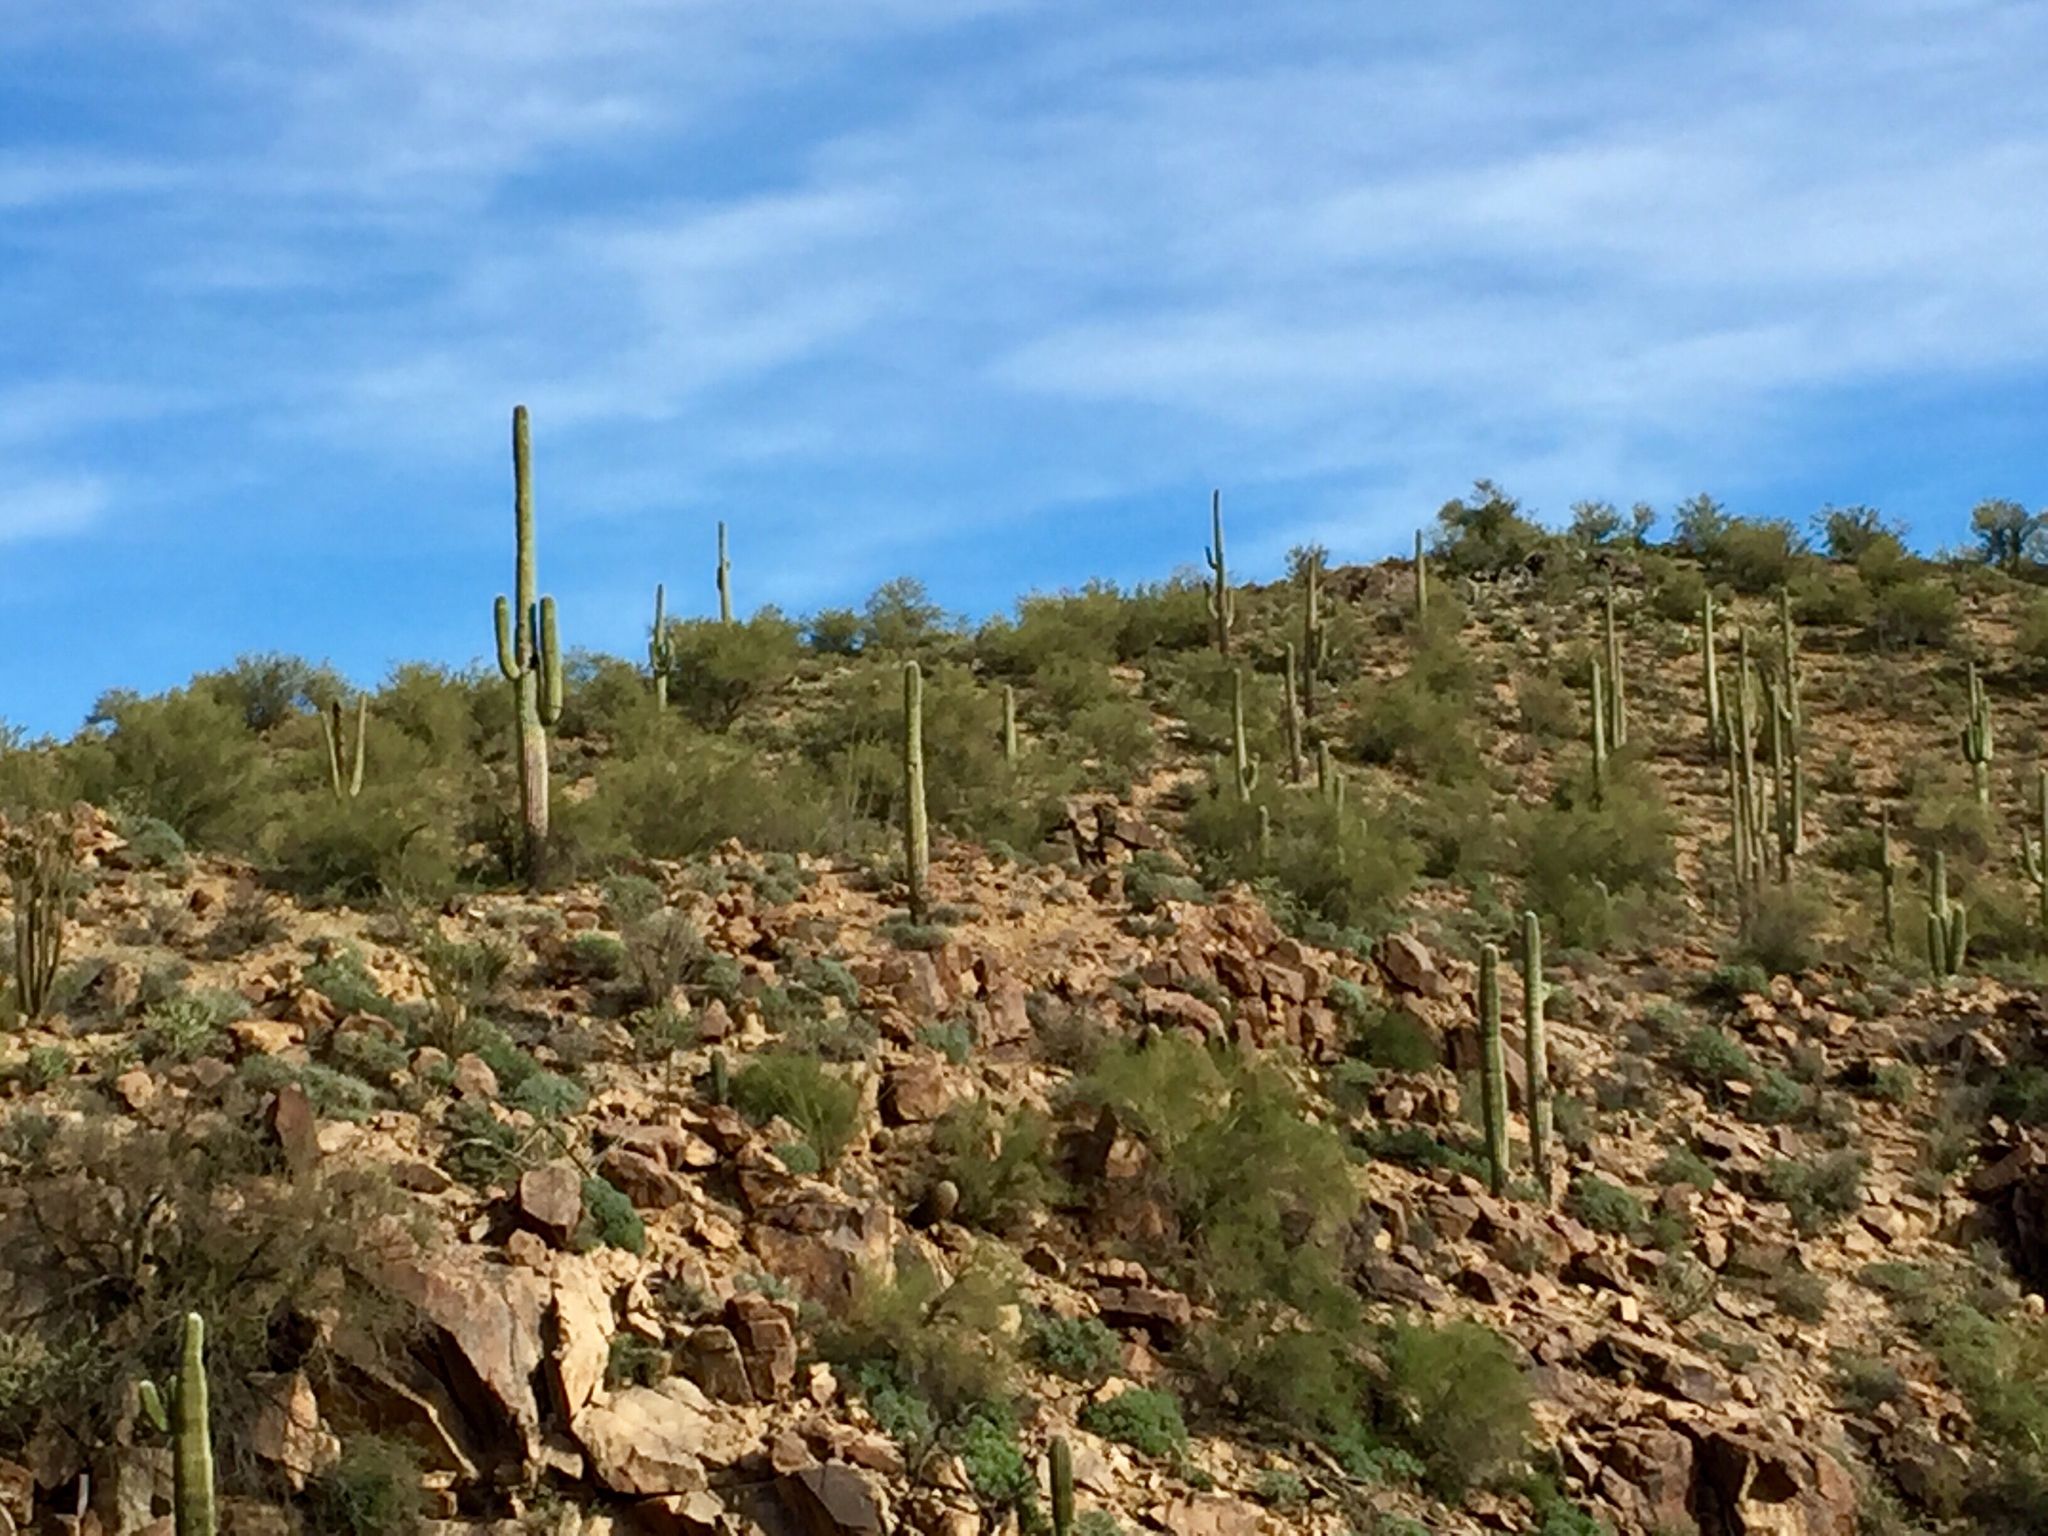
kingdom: Plantae
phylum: Tracheophyta
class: Magnoliopsida
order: Caryophyllales
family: Cactaceae
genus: Carnegiea
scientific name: Carnegiea gigantea
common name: Saguaro
